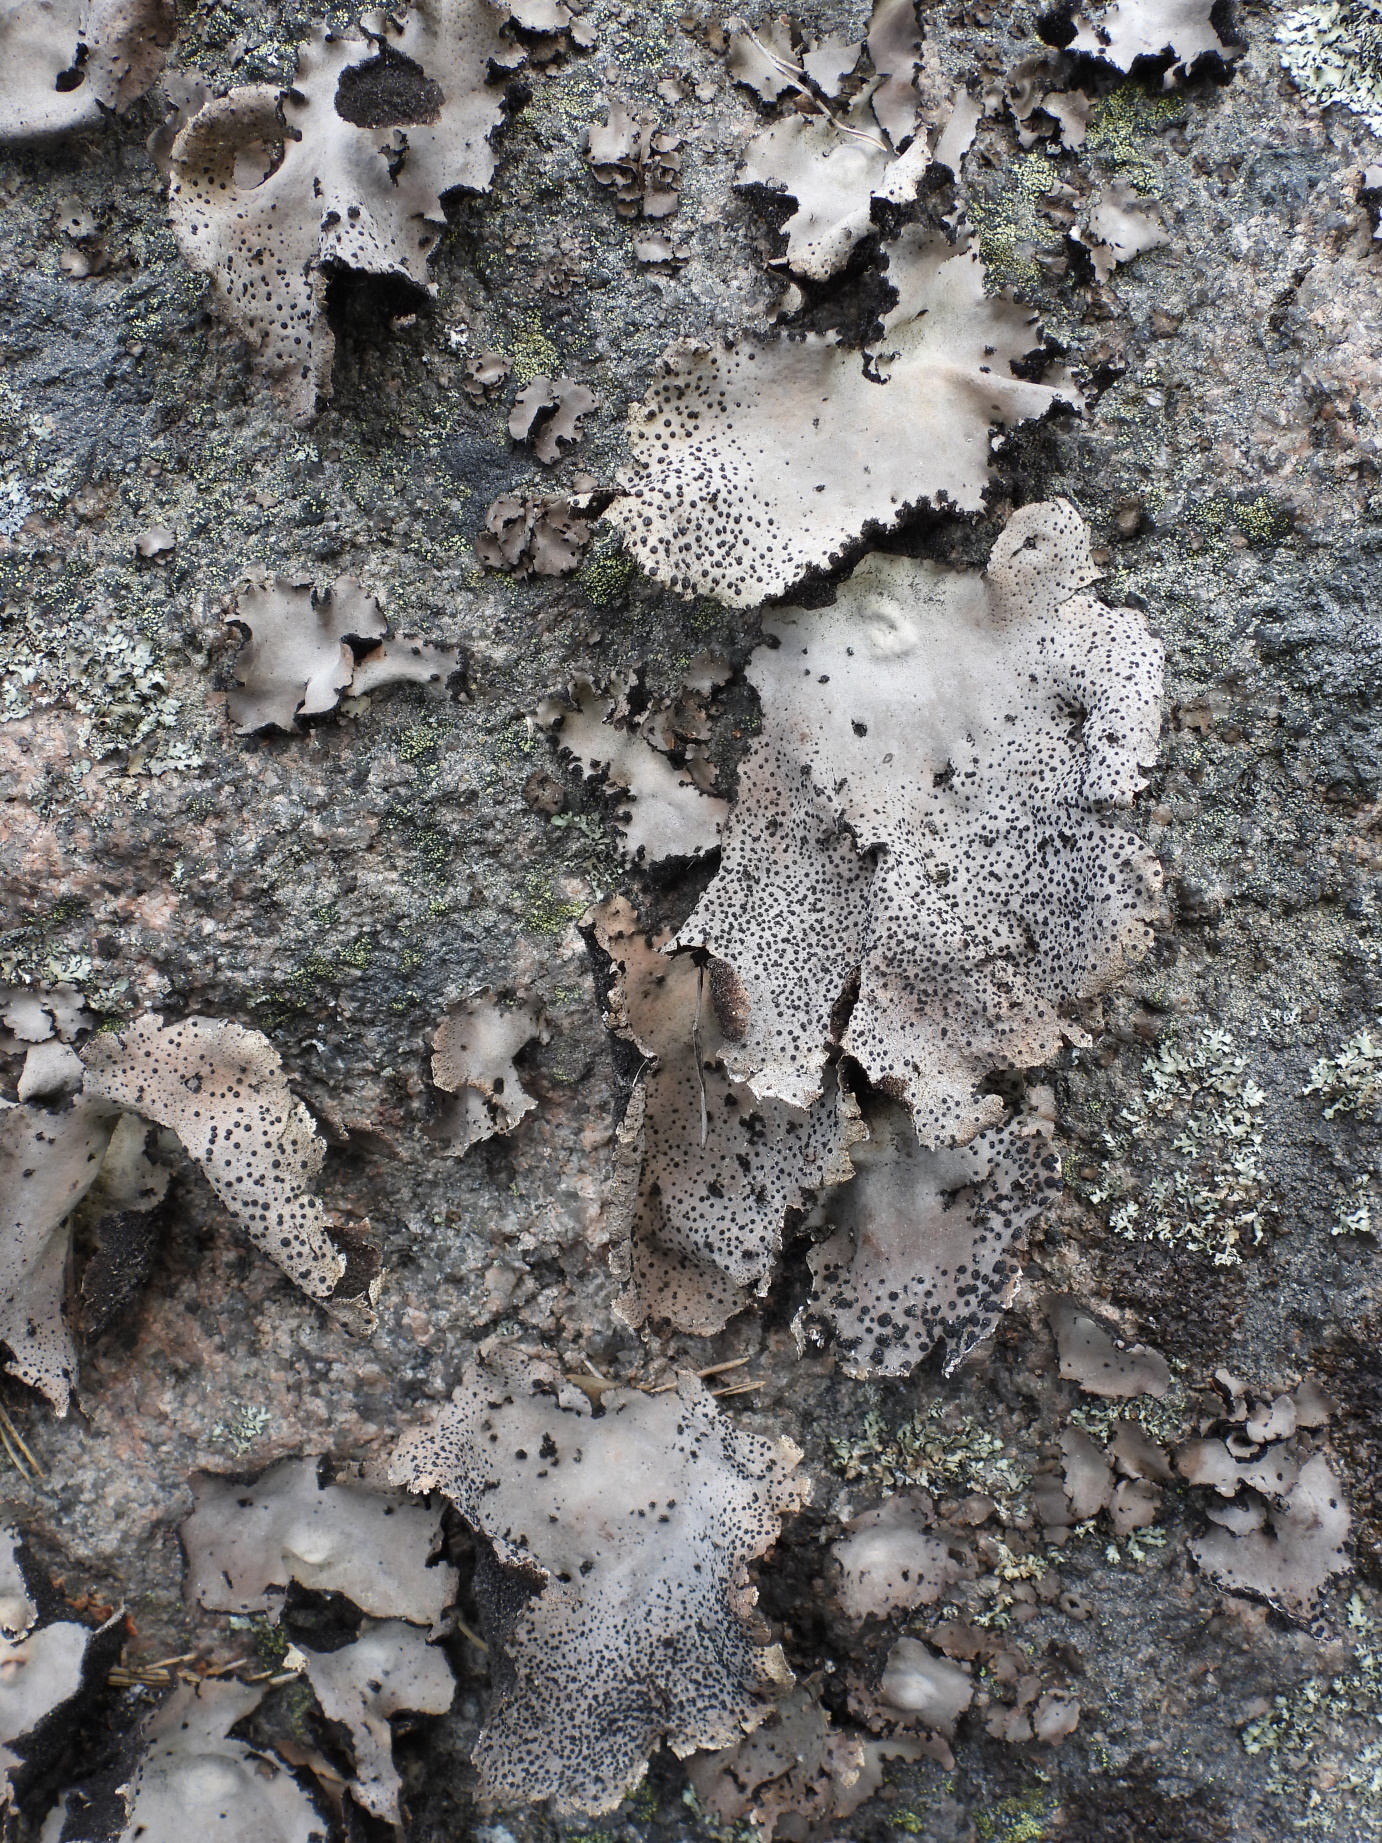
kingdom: Fungi
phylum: Ascomycota
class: Lecanoromycetes
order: Umbilicariales
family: Umbilicariaceae
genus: Umbilicaria
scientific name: Umbilicaria spodochroa
